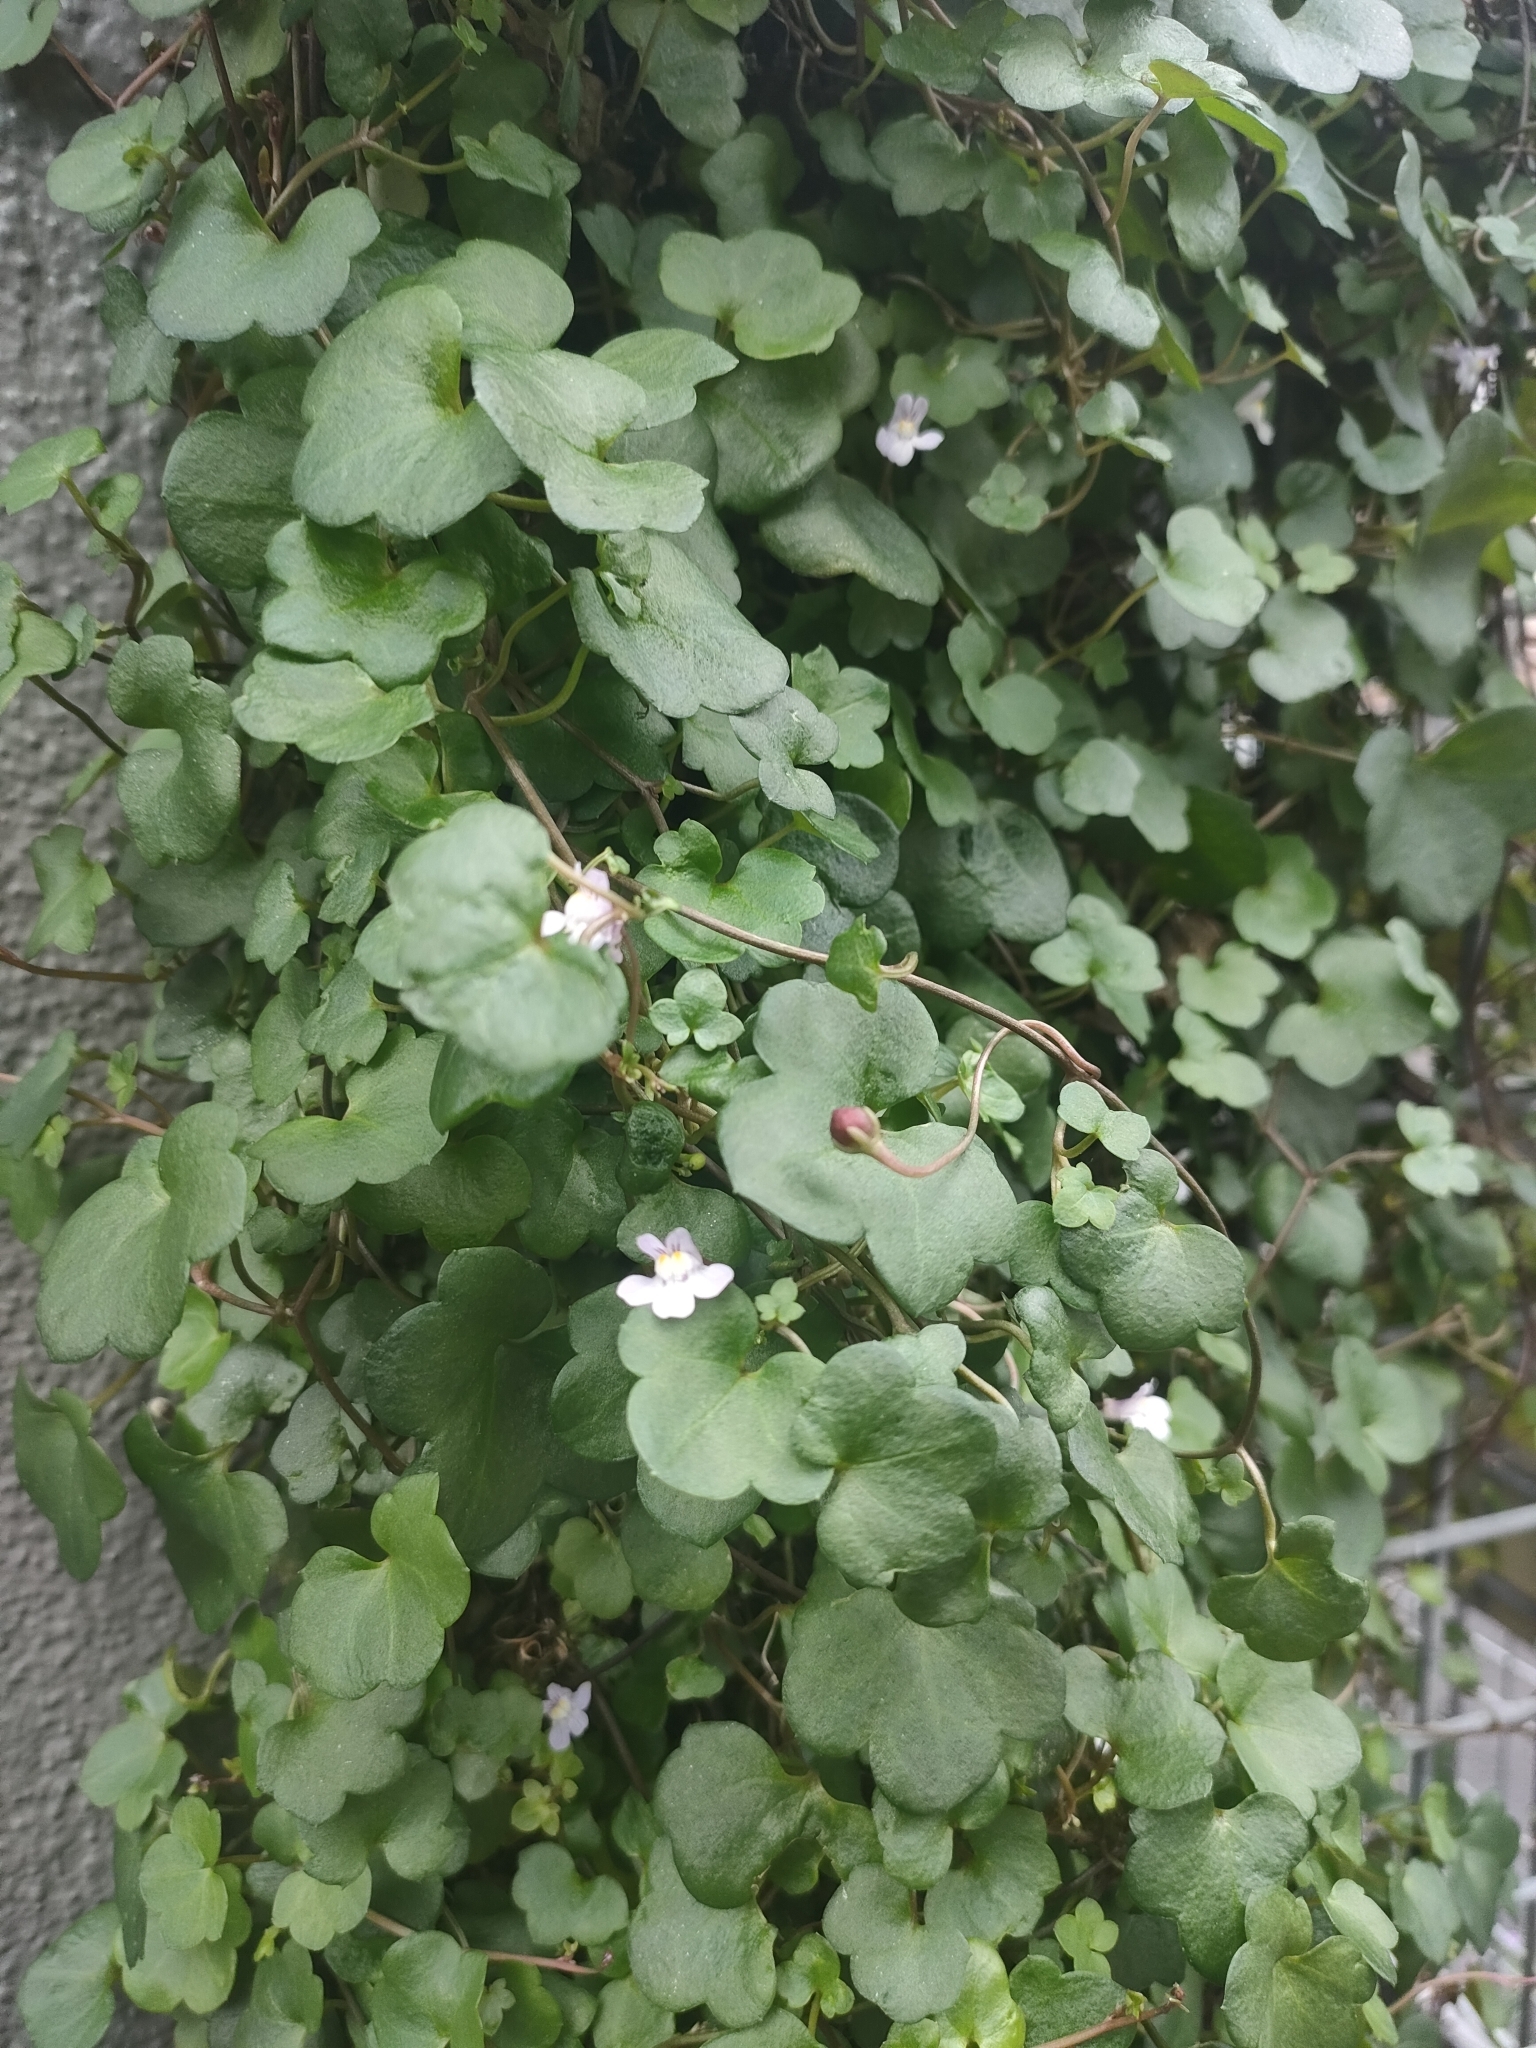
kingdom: Plantae
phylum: Tracheophyta
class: Magnoliopsida
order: Lamiales
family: Plantaginaceae
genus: Cymbalaria
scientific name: Cymbalaria muralis
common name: Ivy-leaved toadflax
